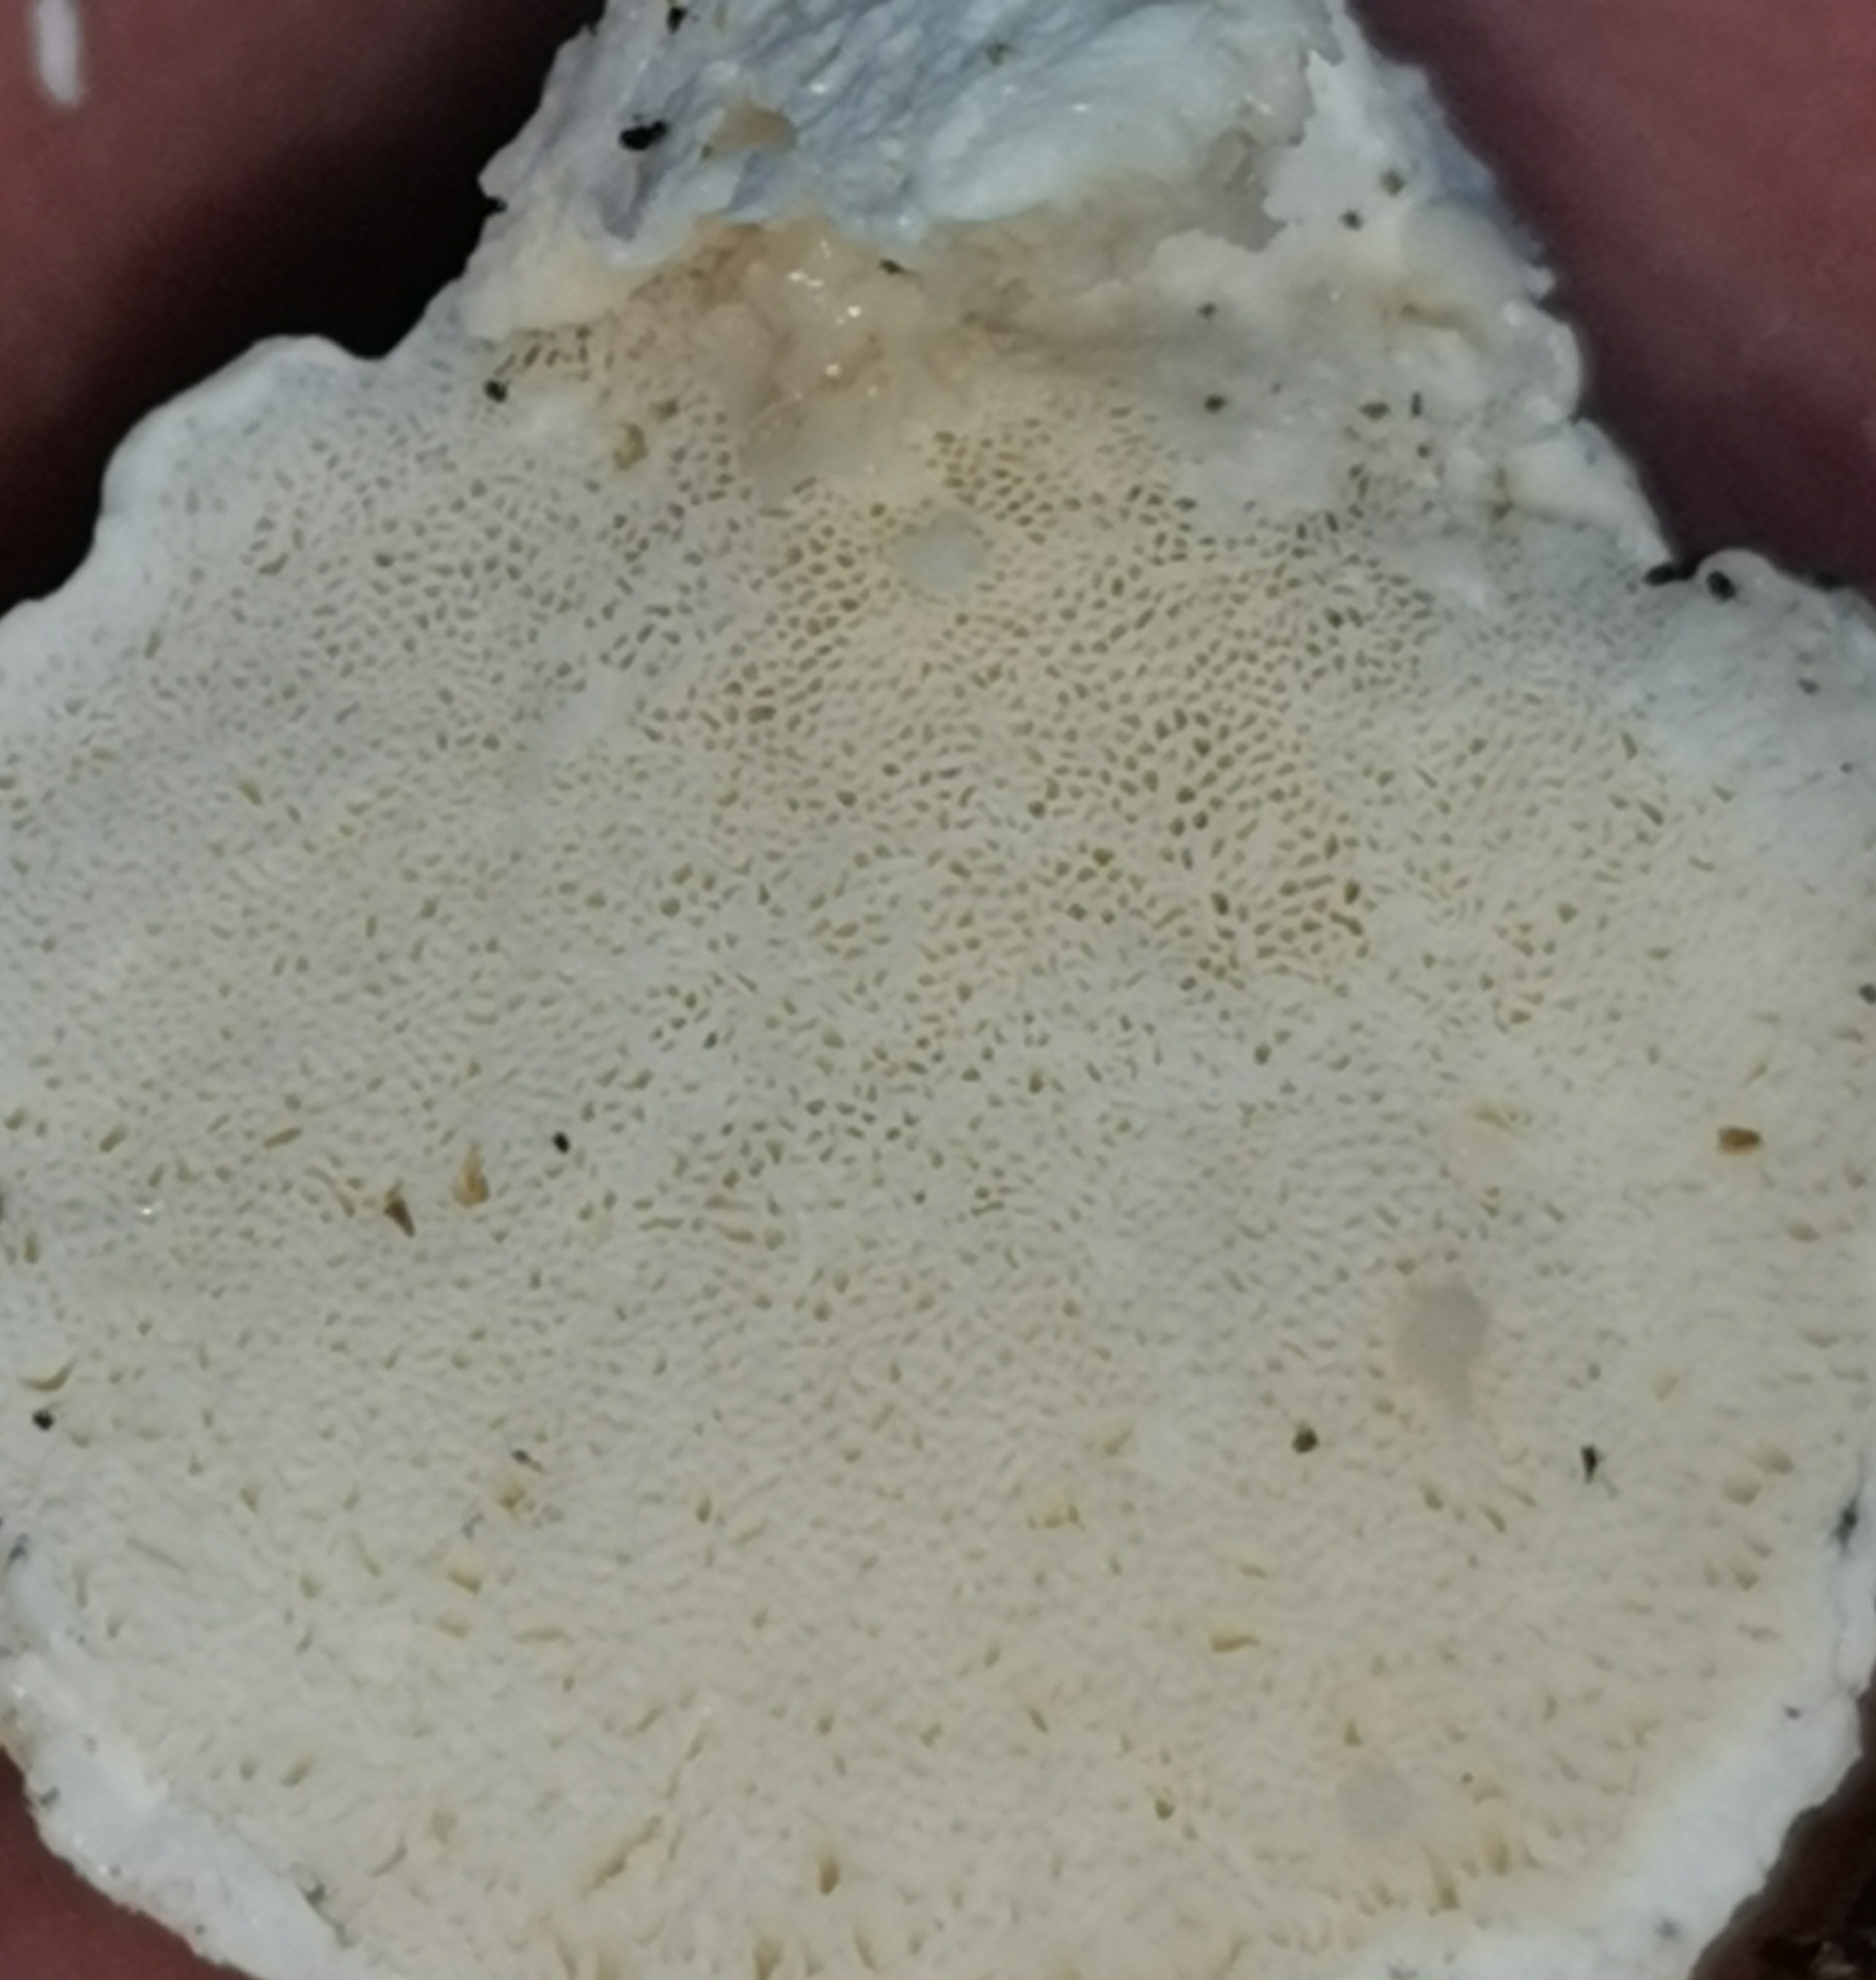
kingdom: Fungi
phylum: Basidiomycota
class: Agaricomycetes
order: Polyporales
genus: Amaropostia
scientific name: Amaropostia stiptica
